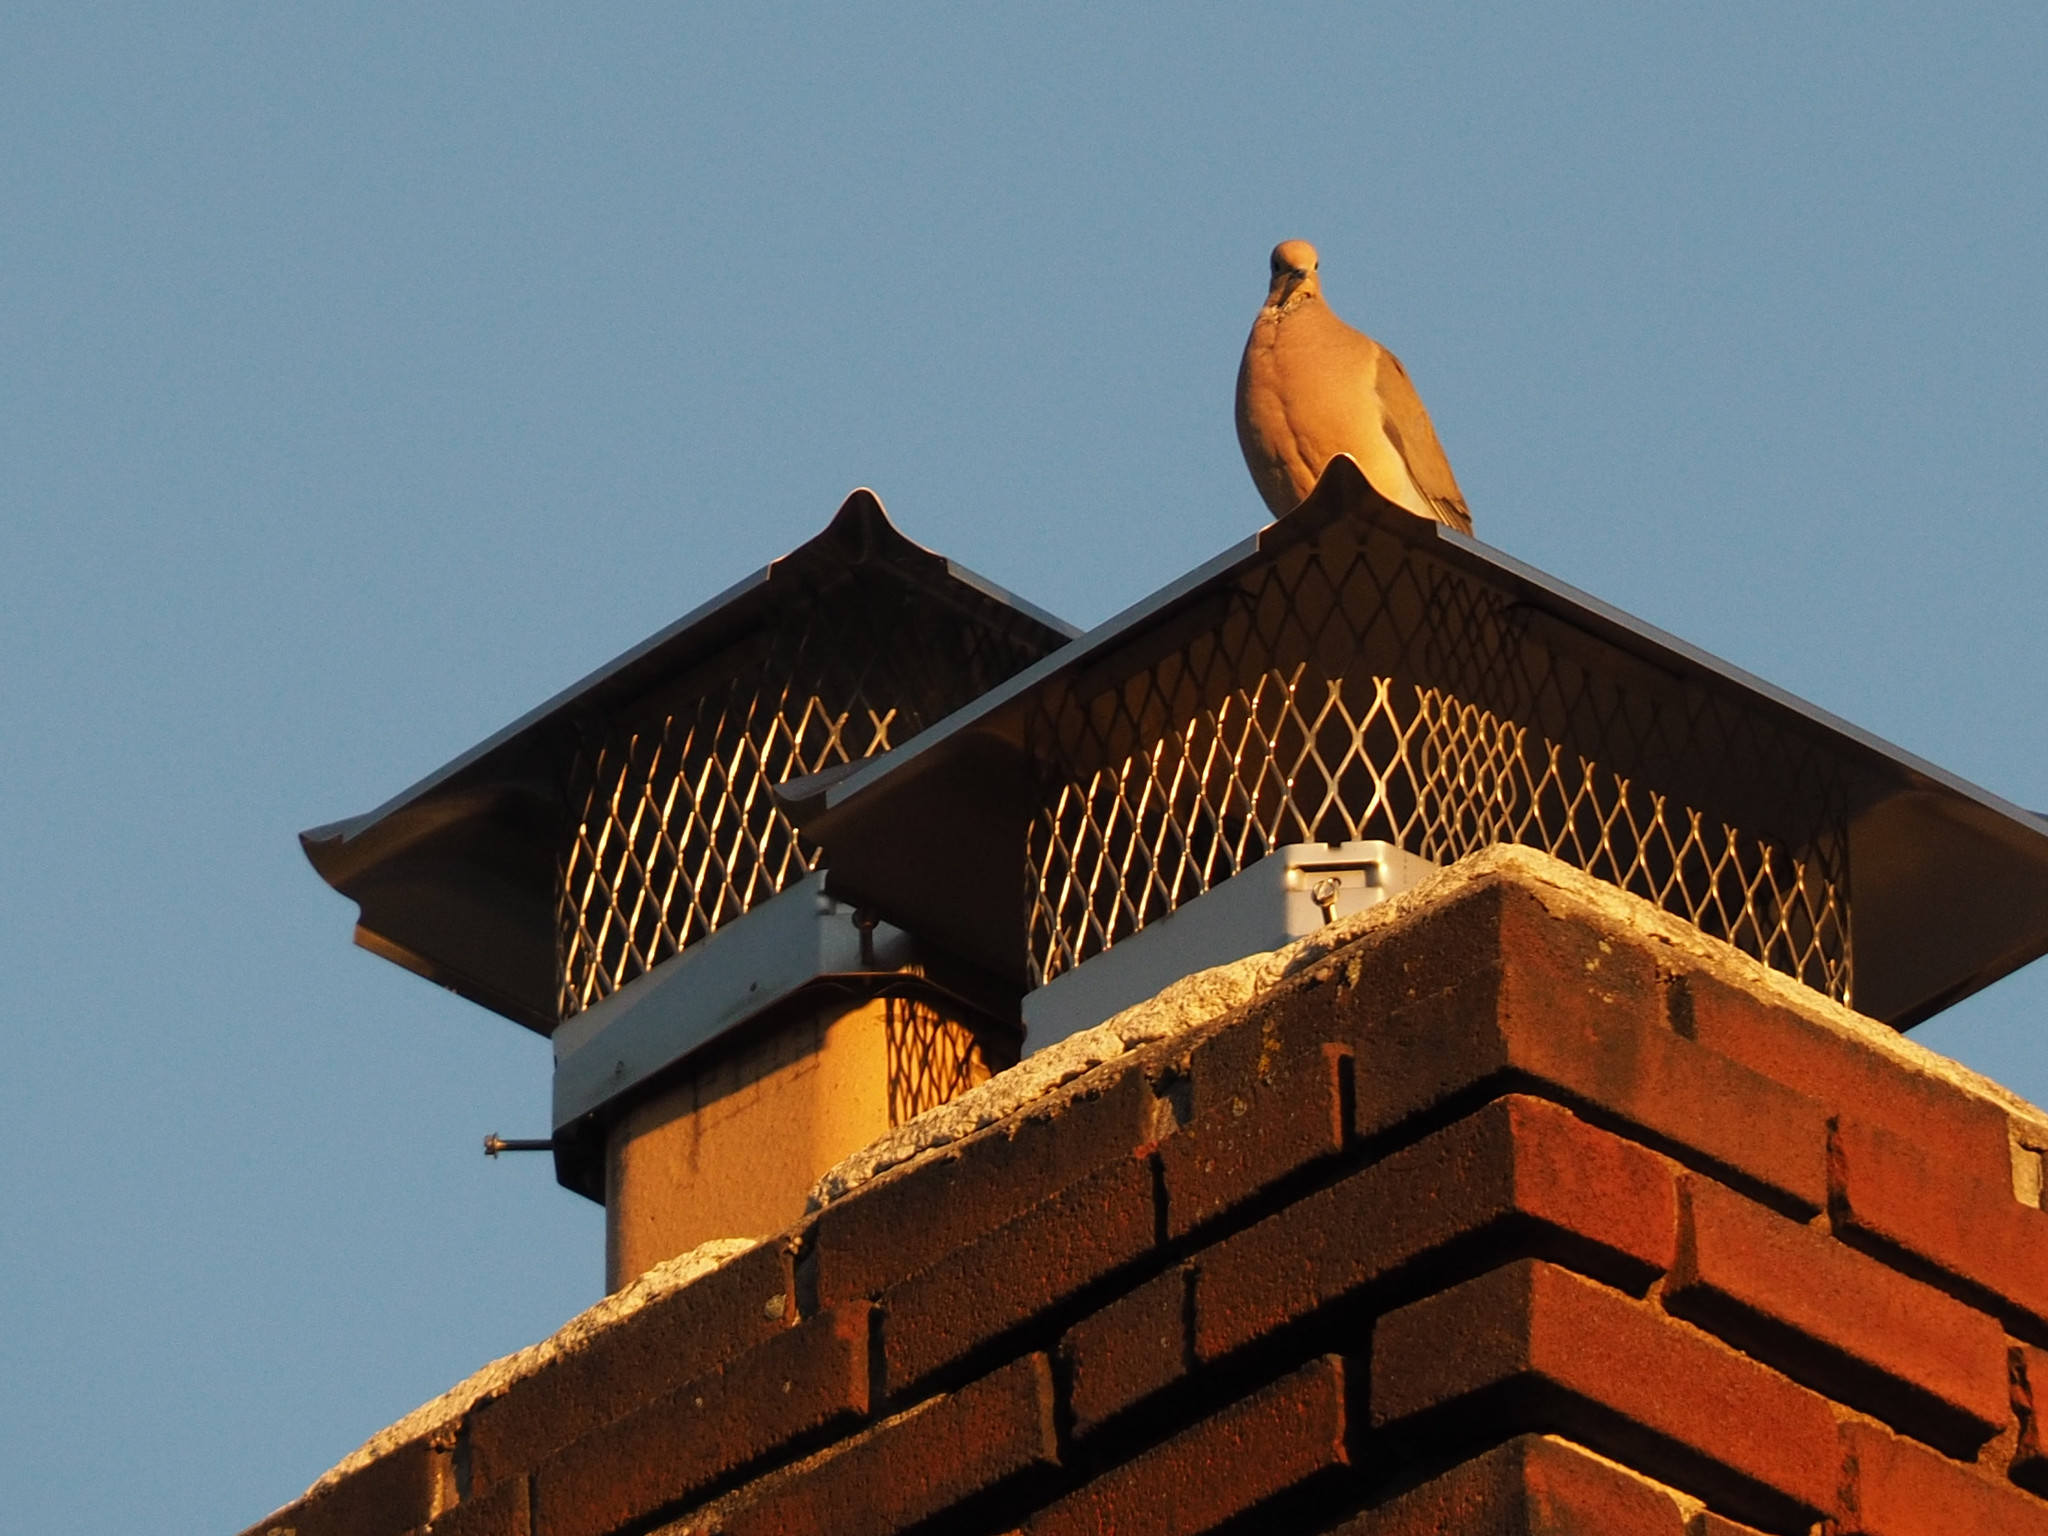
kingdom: Animalia
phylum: Chordata
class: Aves
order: Columbiformes
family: Columbidae
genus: Zenaida
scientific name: Zenaida macroura
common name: Mourning dove
